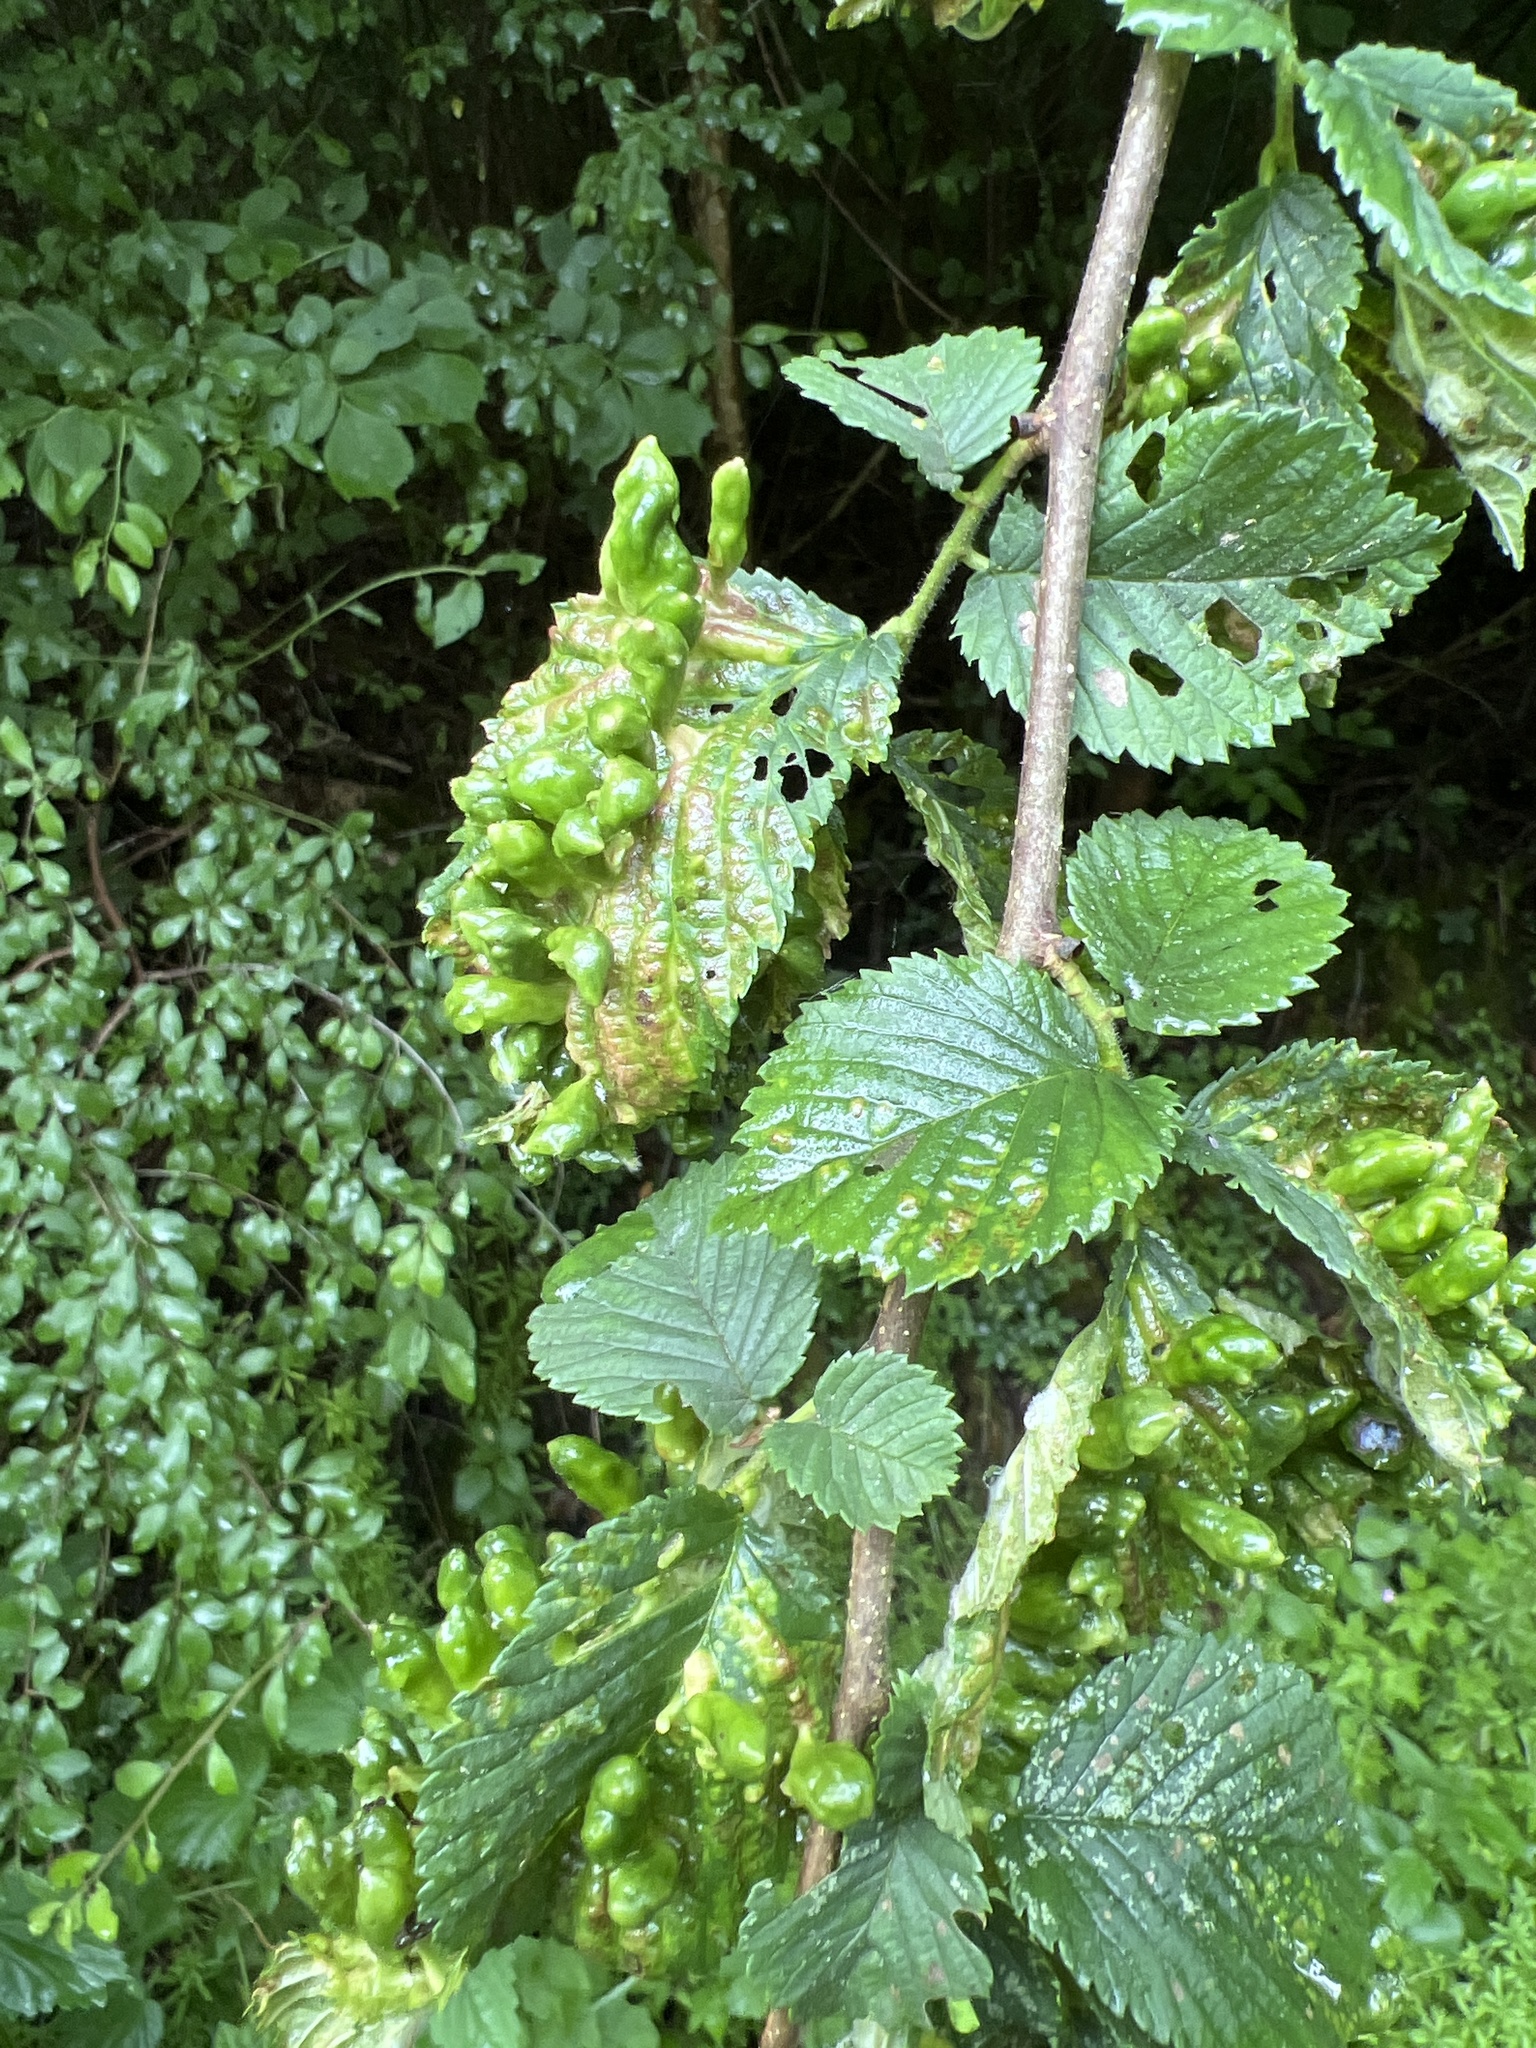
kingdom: Animalia
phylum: Arthropoda
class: Insecta
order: Hemiptera
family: Aphididae
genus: Tetraneura
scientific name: Tetraneura ulmi
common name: Aphid
